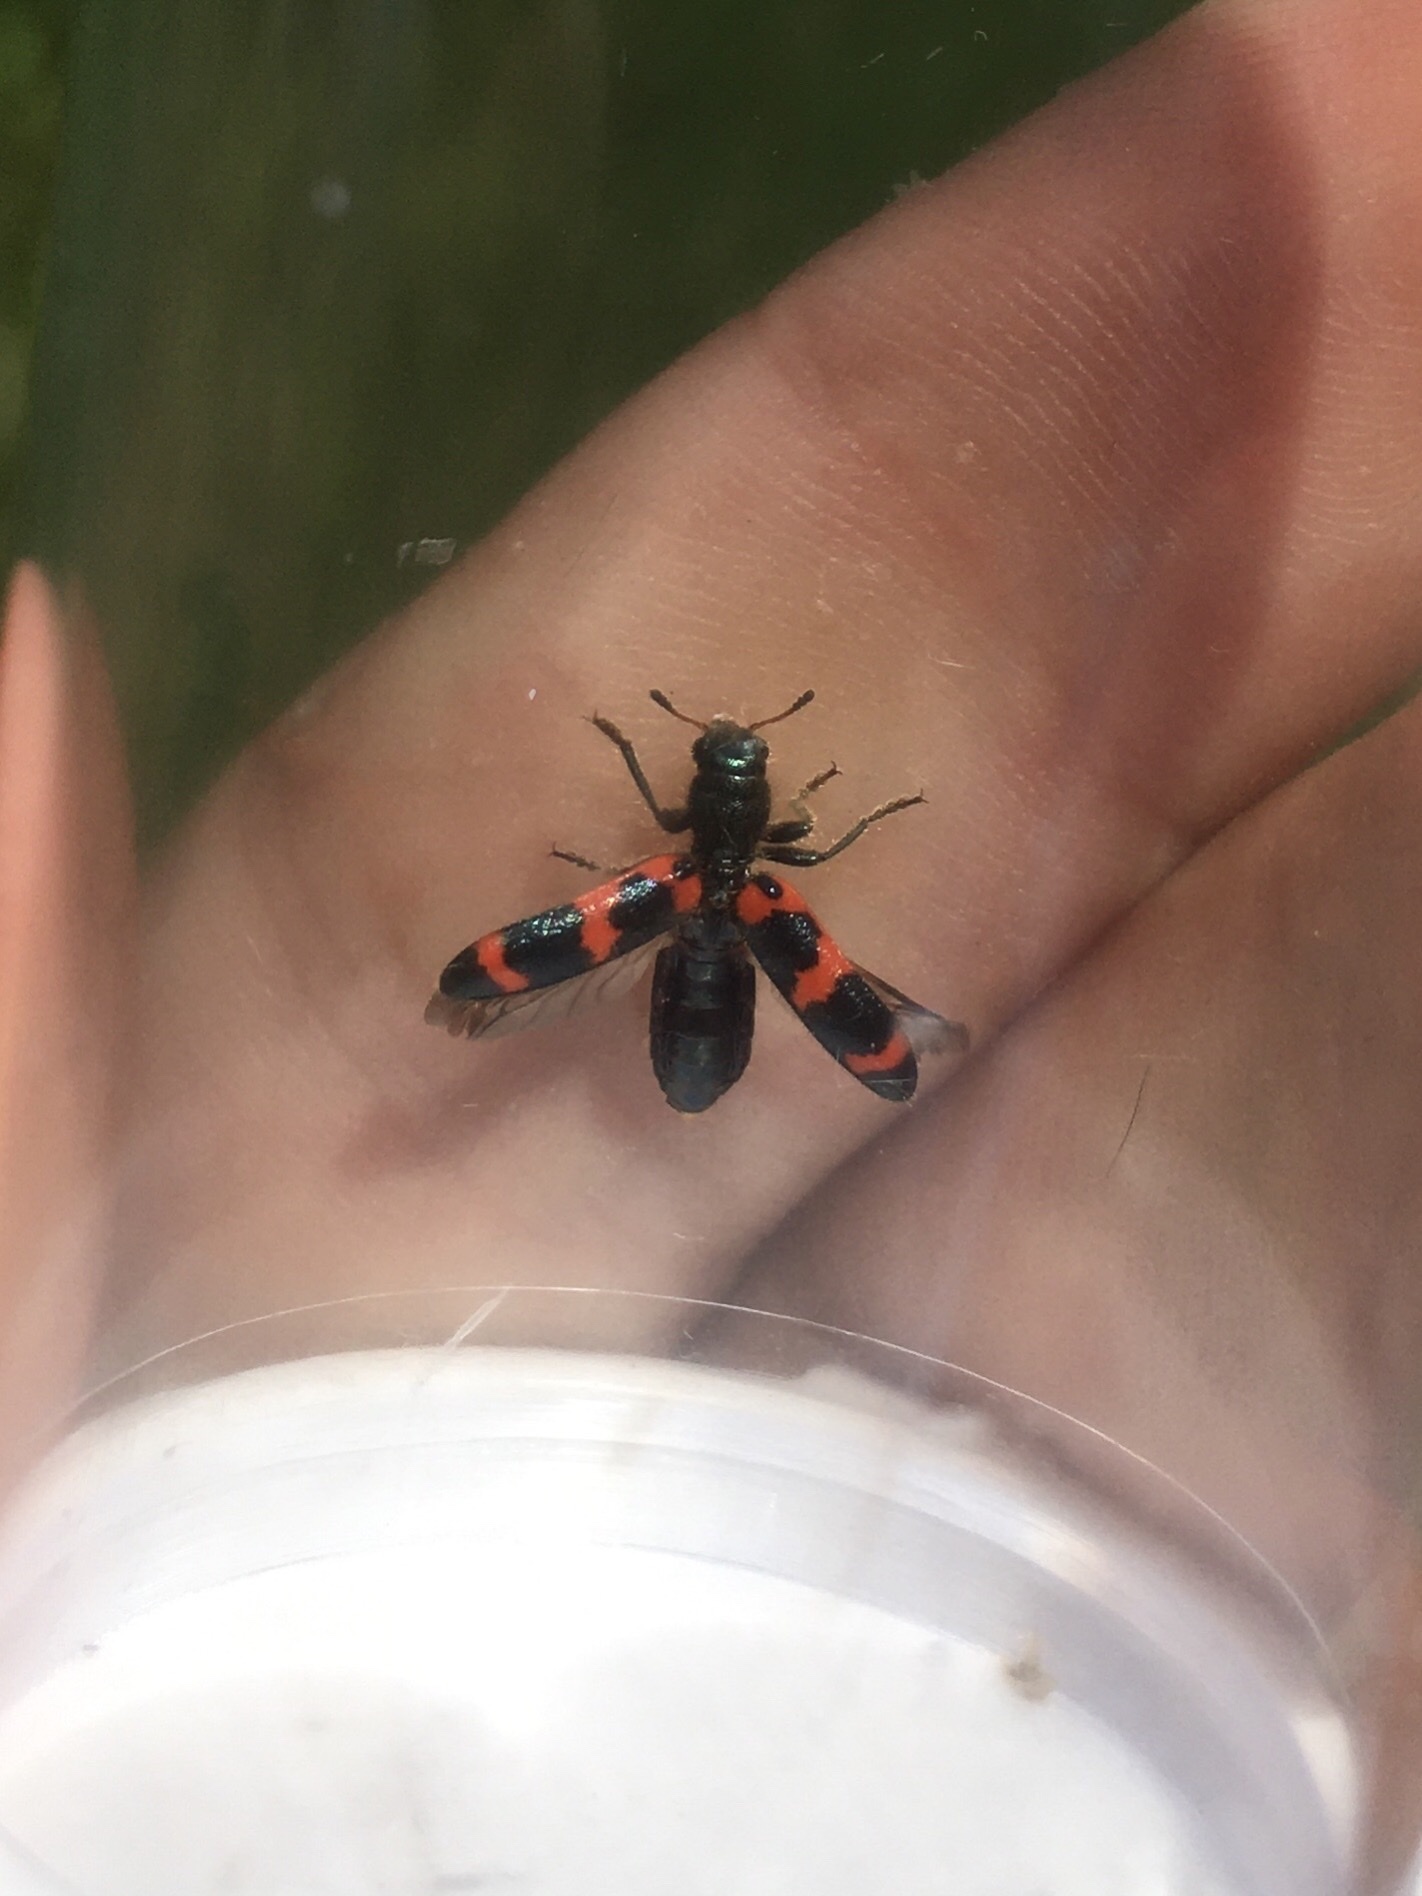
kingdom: Animalia
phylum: Arthropoda
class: Insecta
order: Coleoptera
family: Cleridae
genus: Trichodes
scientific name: Trichodes nutalli
